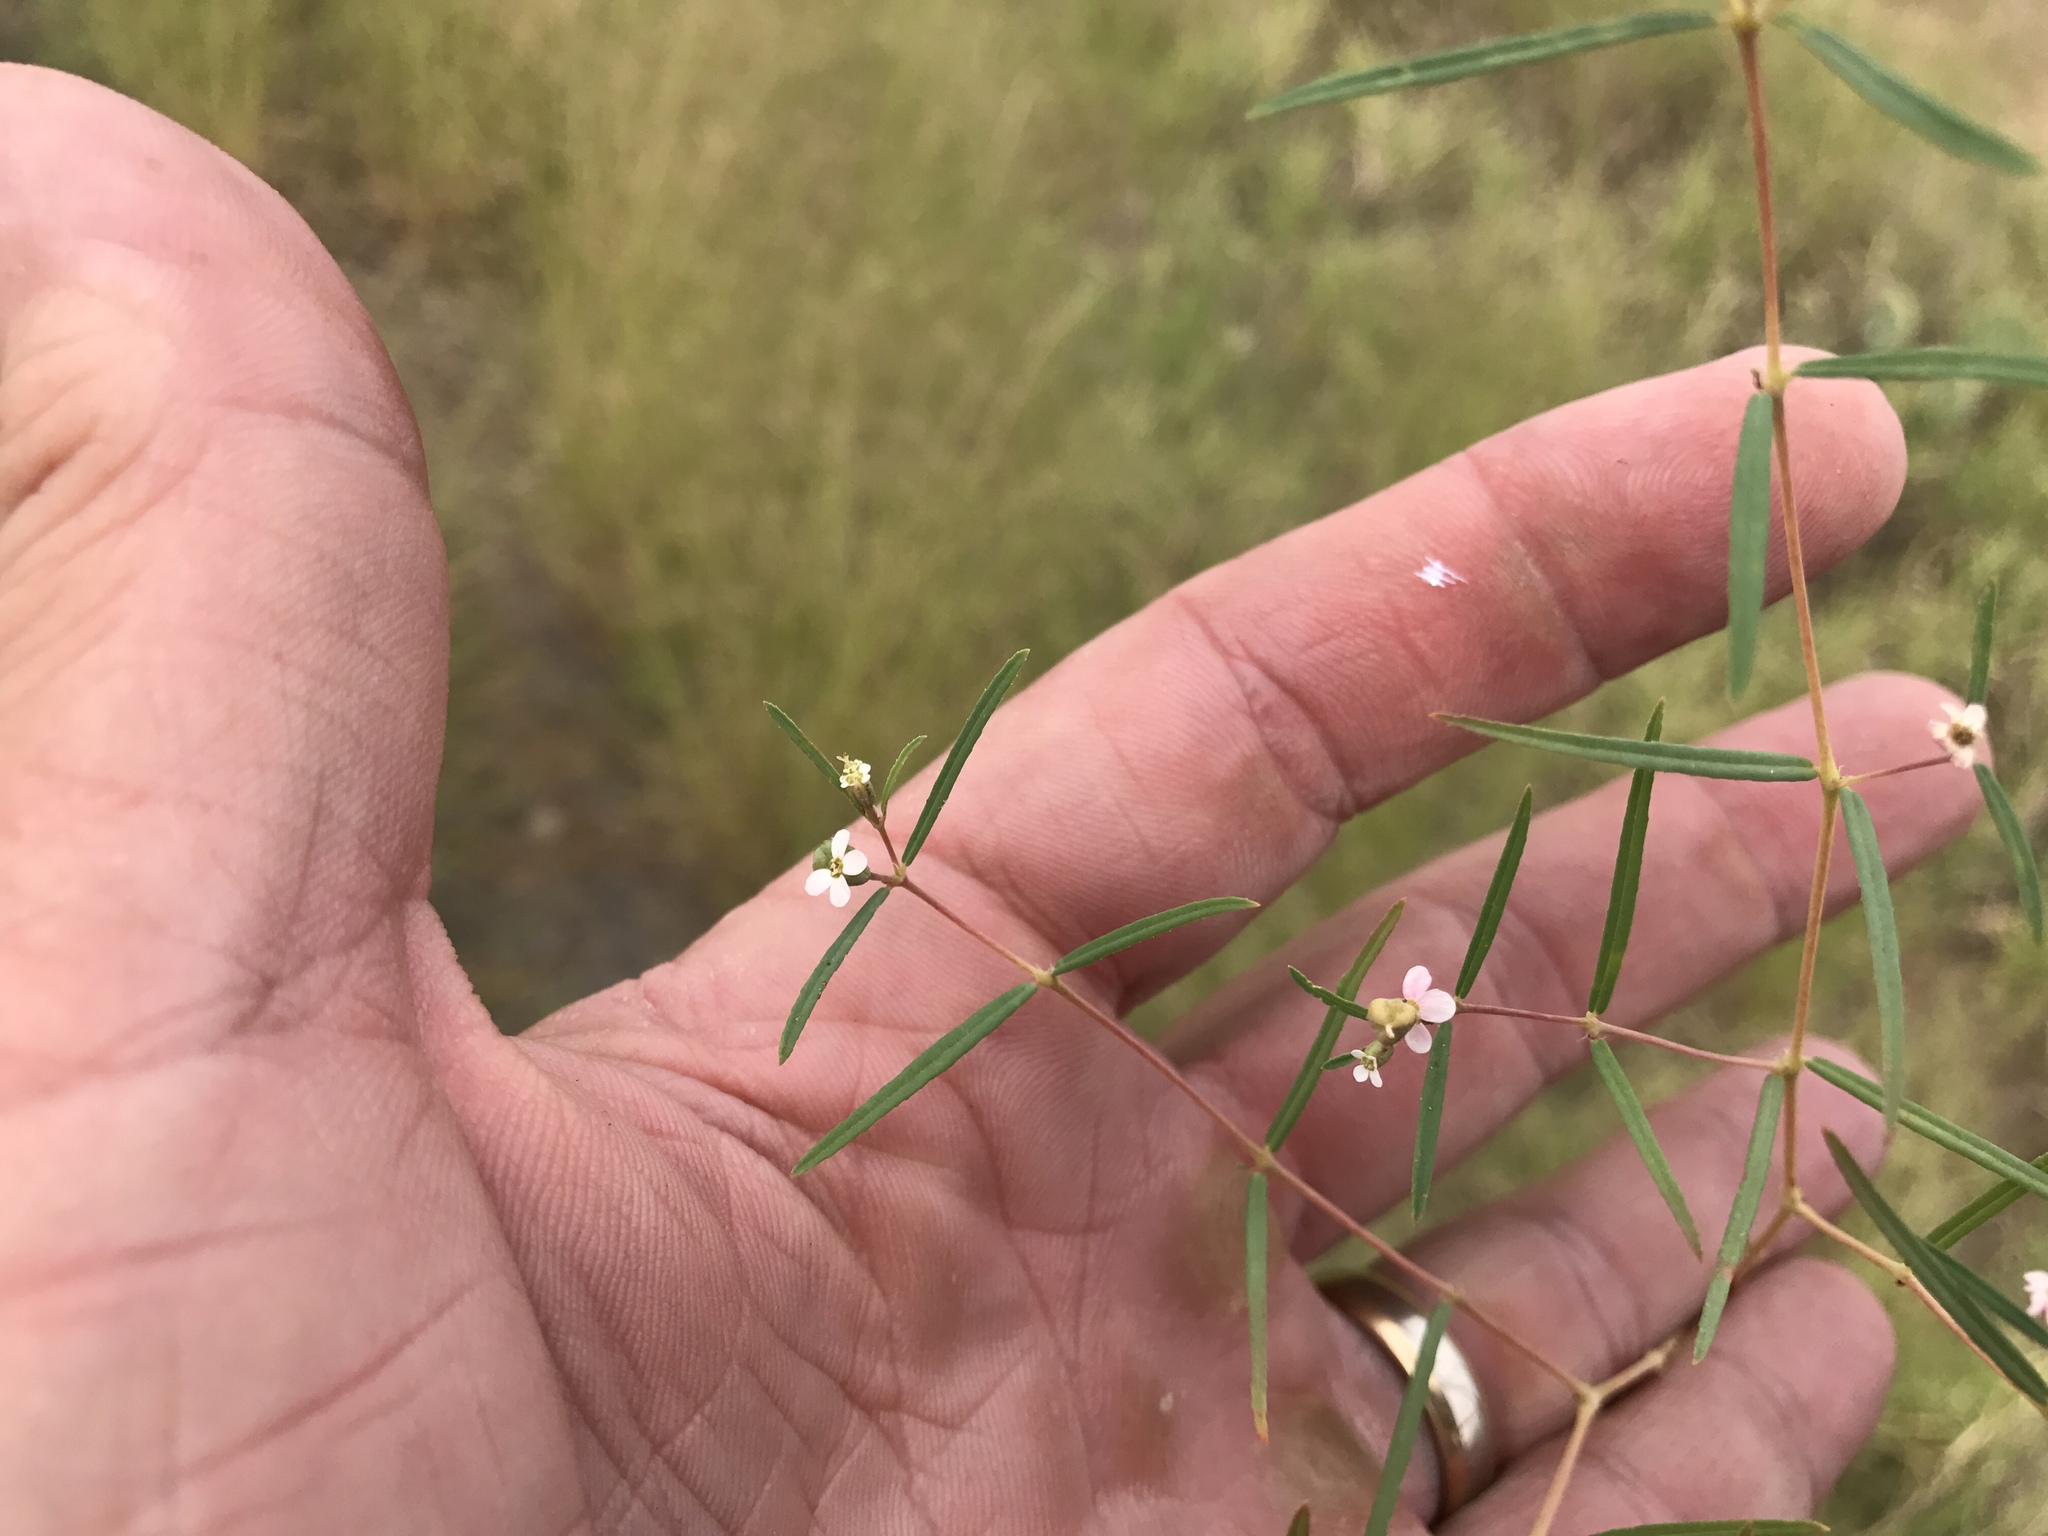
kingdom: Plantae
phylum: Tracheophyta
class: Magnoliopsida
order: Malpighiales
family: Euphorbiaceae
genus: Euphorbia
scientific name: Euphorbia florida
